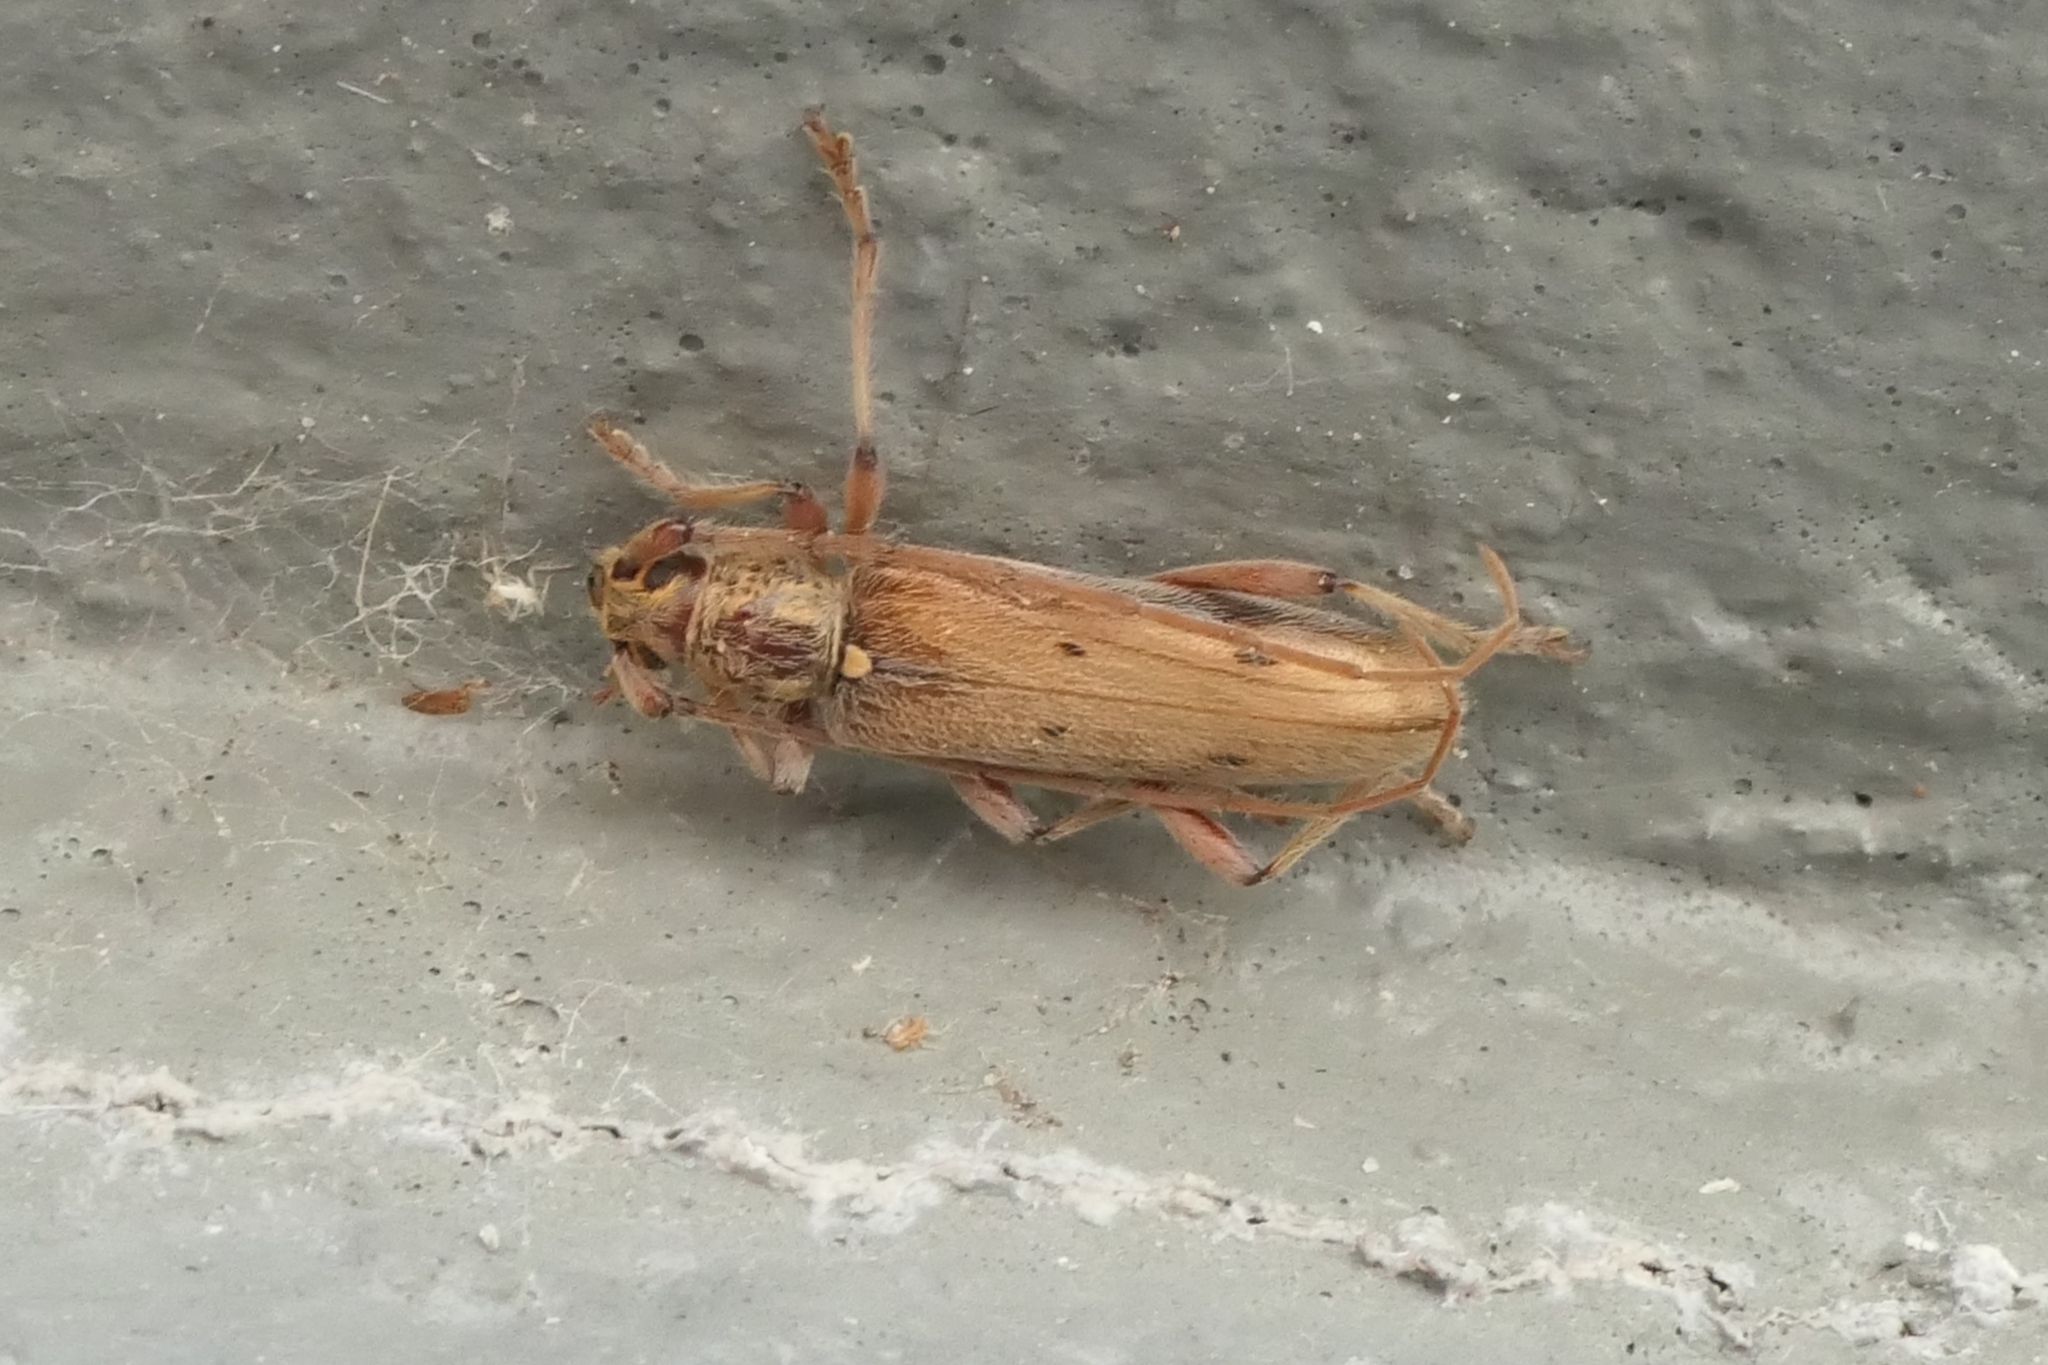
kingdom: Animalia
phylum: Arthropoda
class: Insecta
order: Coleoptera
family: Cerambycidae
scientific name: Cerambycidae
